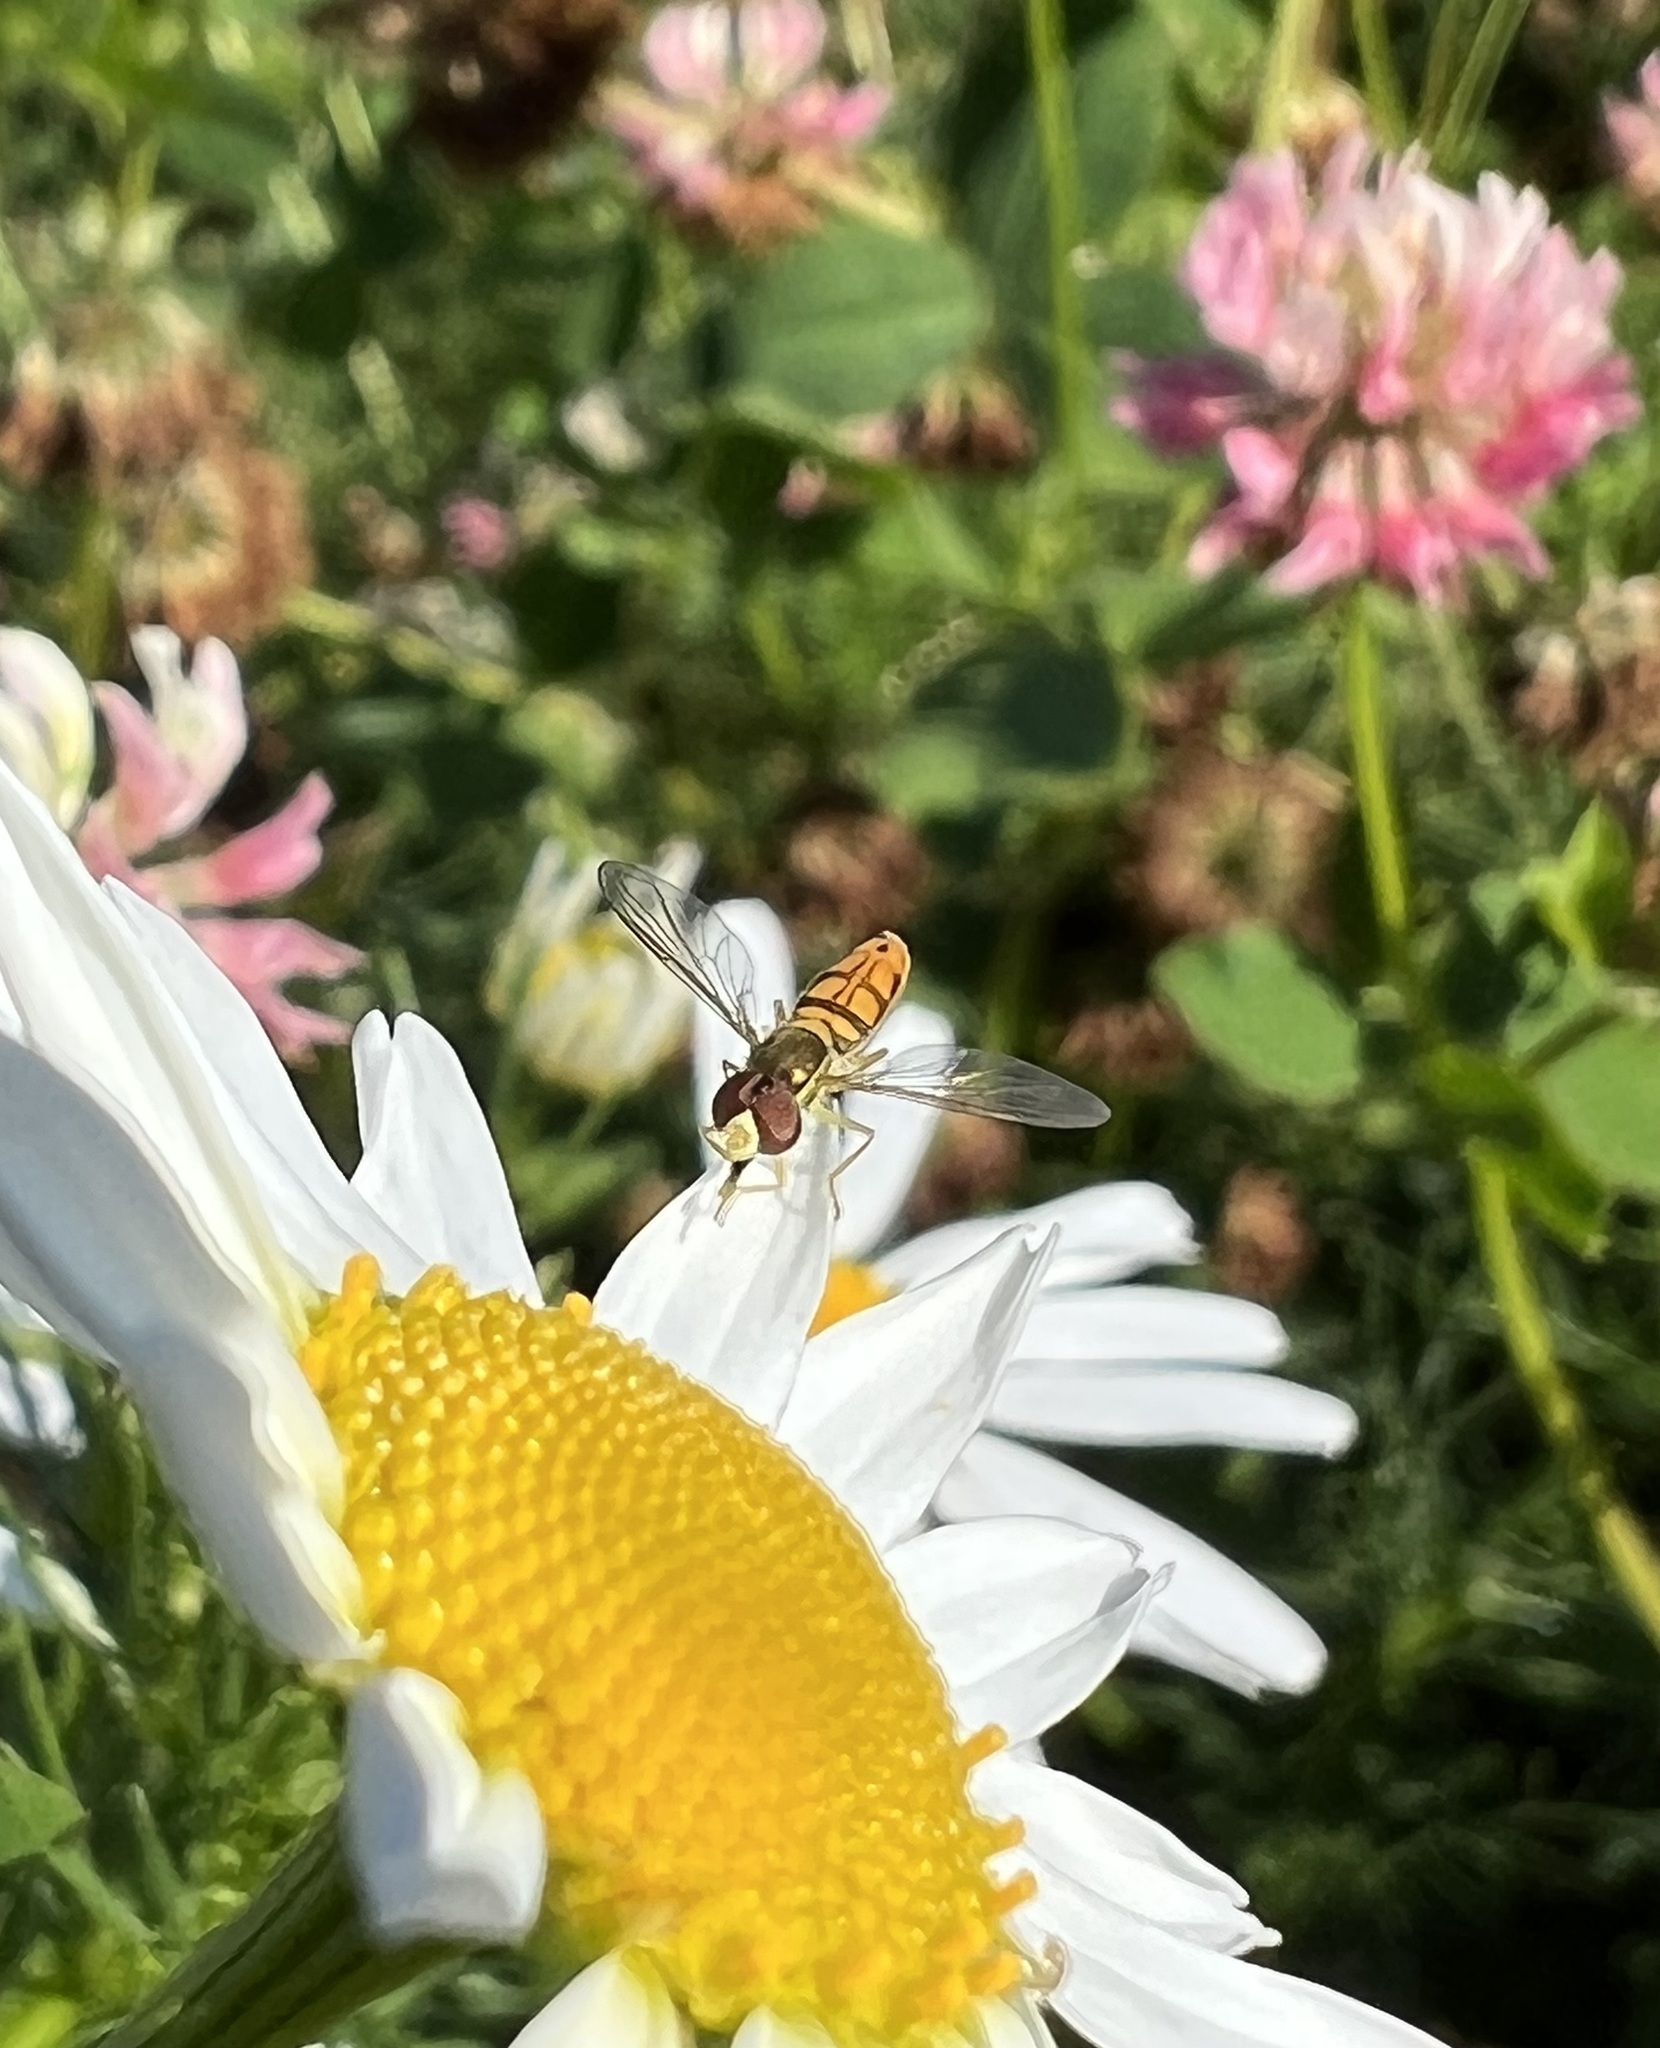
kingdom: Animalia
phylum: Arthropoda
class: Insecta
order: Diptera
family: Syrphidae
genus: Toxomerus
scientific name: Toxomerus marginatus
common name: Syrphid fly
